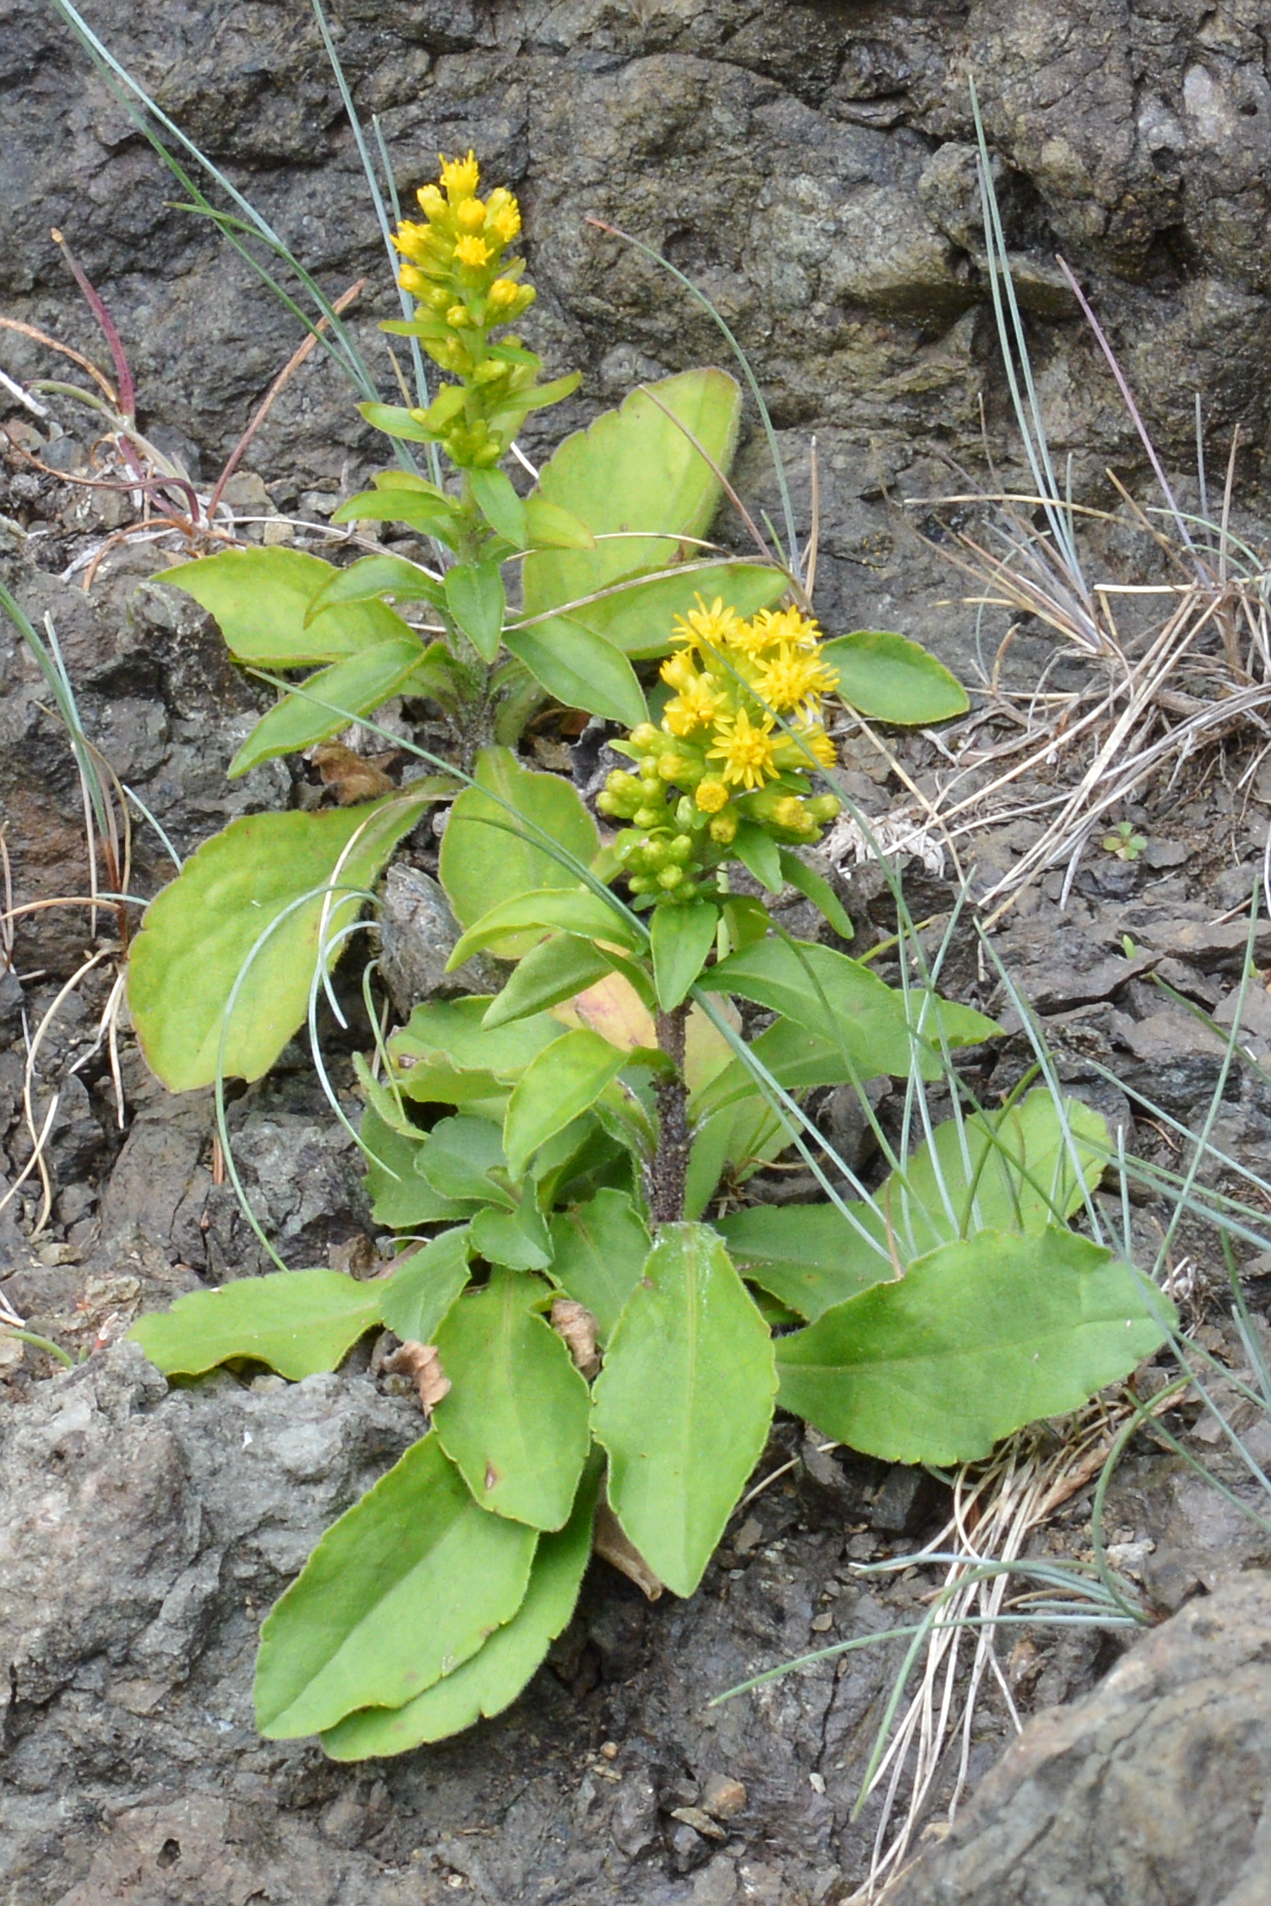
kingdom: Plantae
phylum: Tracheophyta
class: Magnoliopsida
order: Asterales
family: Asteraceae
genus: Solidago
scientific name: Solidago hispida
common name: Hairy goldenrod
